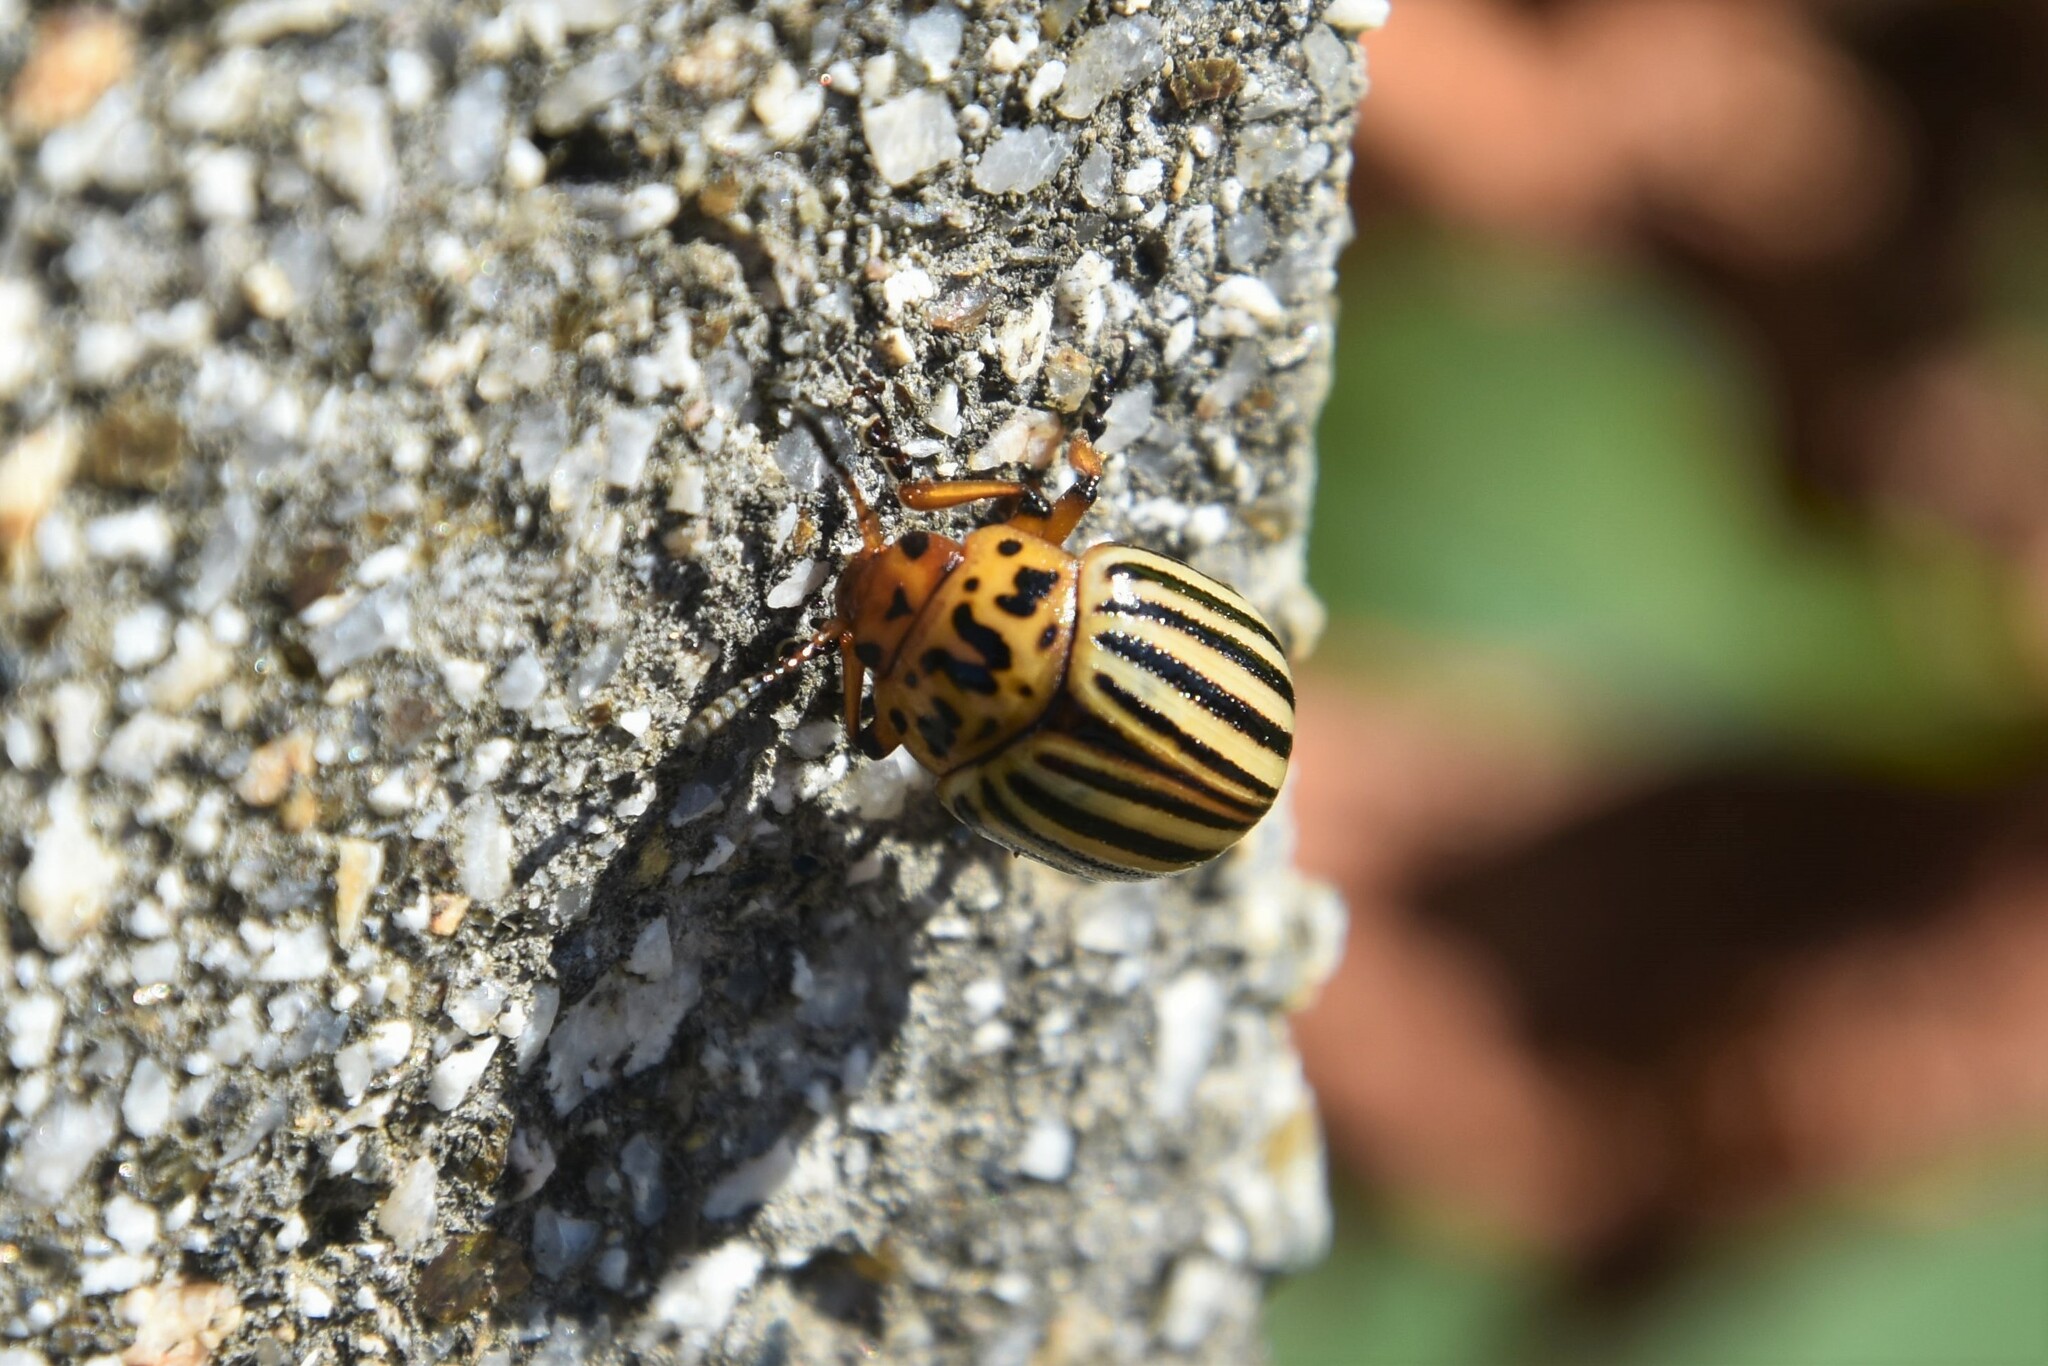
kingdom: Animalia
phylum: Arthropoda
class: Insecta
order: Coleoptera
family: Chrysomelidae
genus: Leptinotarsa
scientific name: Leptinotarsa decemlineata
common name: Colorado potato beetle
